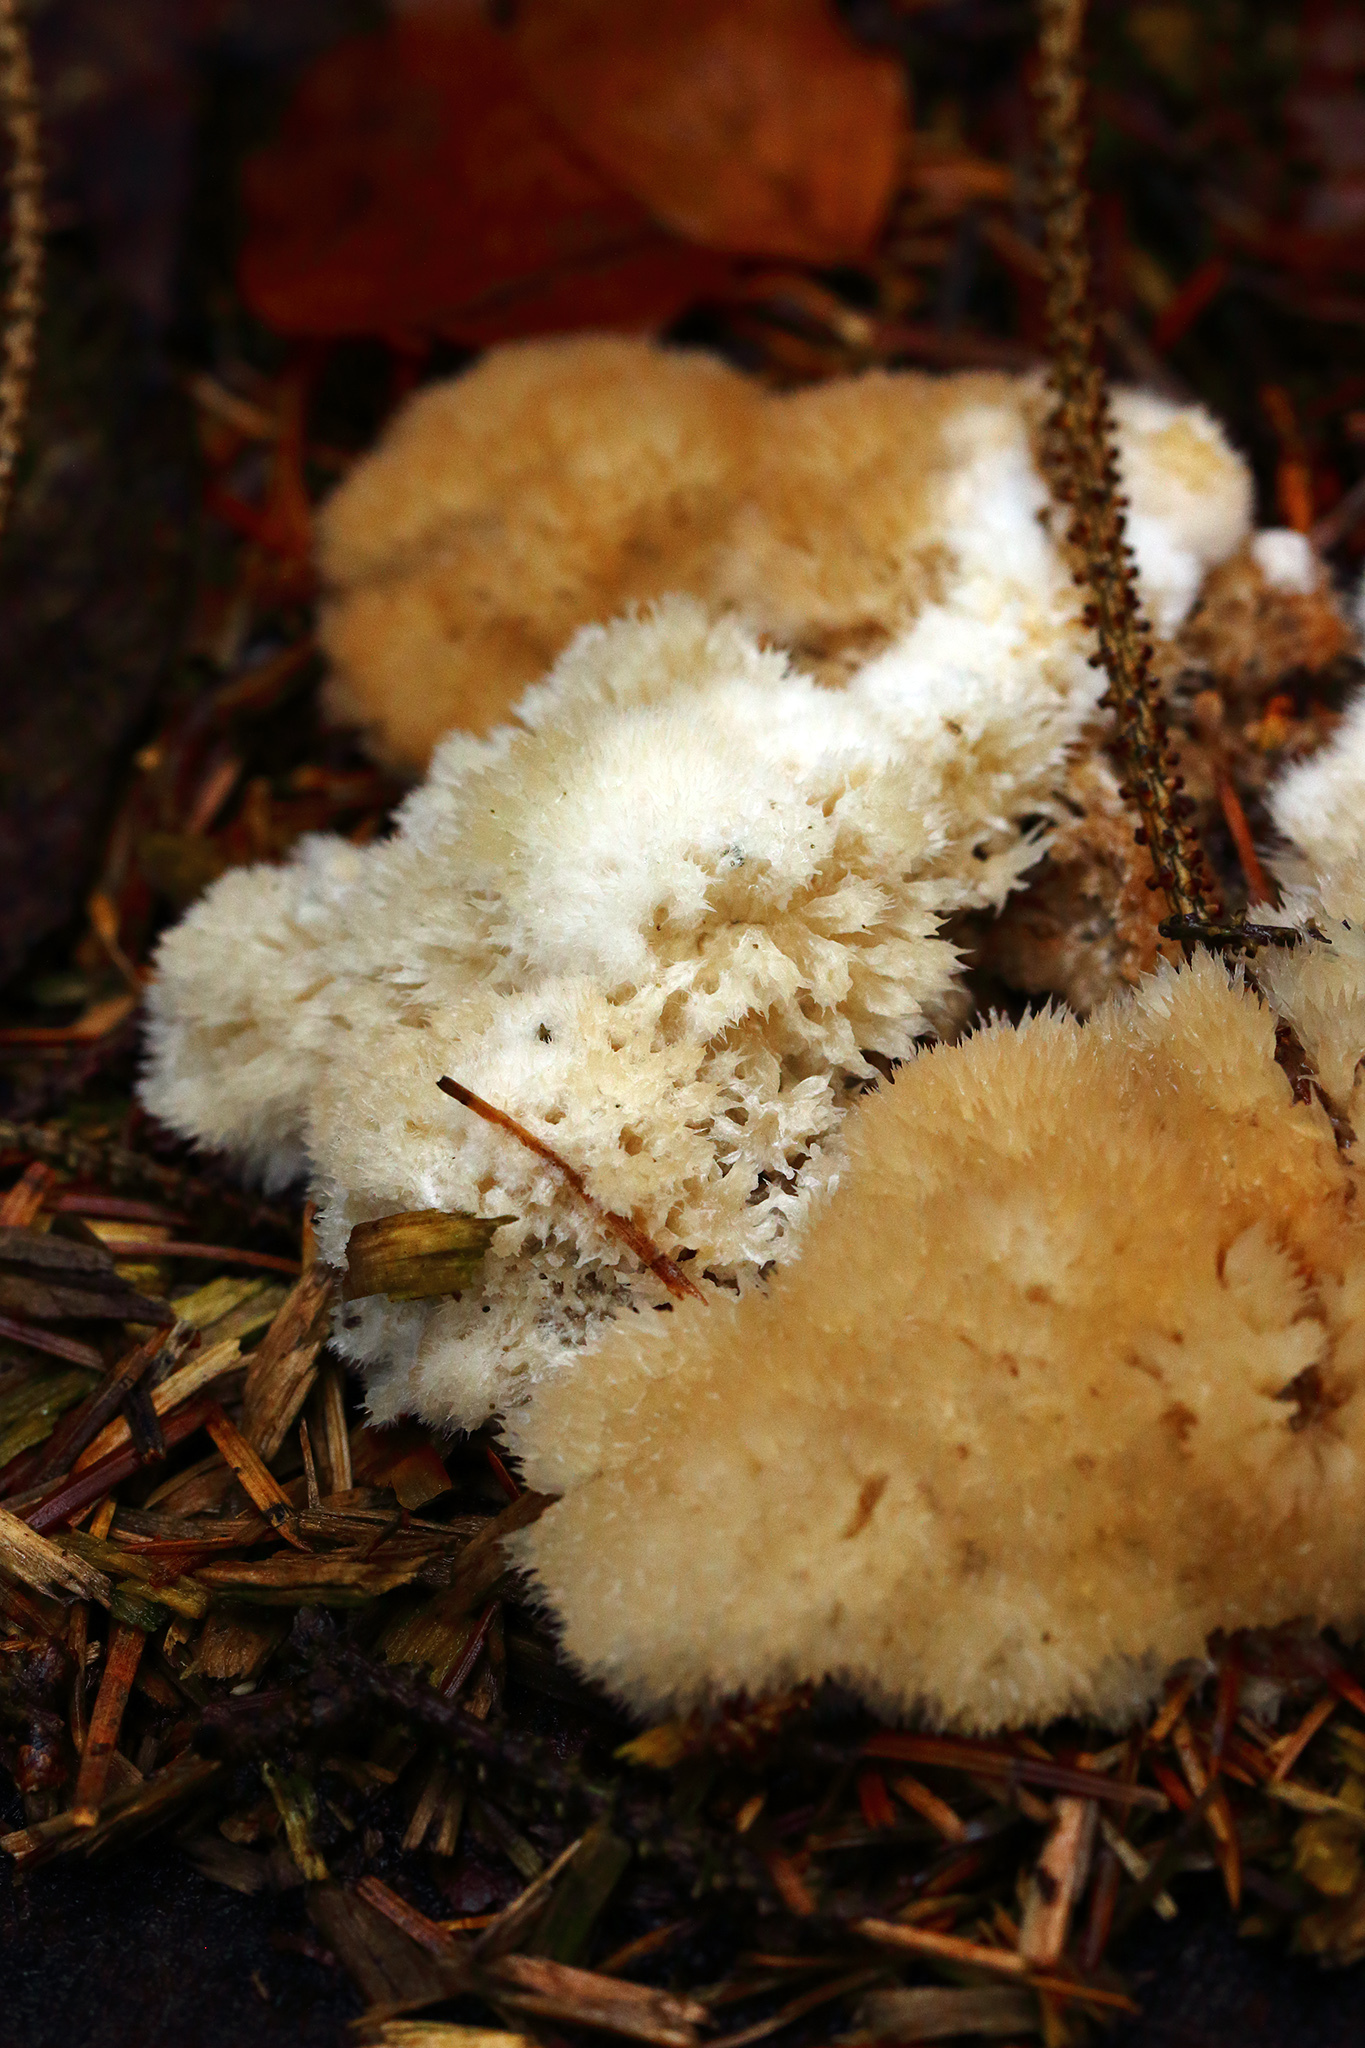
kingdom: Fungi
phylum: Basidiomycota
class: Agaricomycetes
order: Polyporales
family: Dacryobolaceae
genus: Postia
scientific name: Postia ptychogaster
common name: Powderpuff bracket
